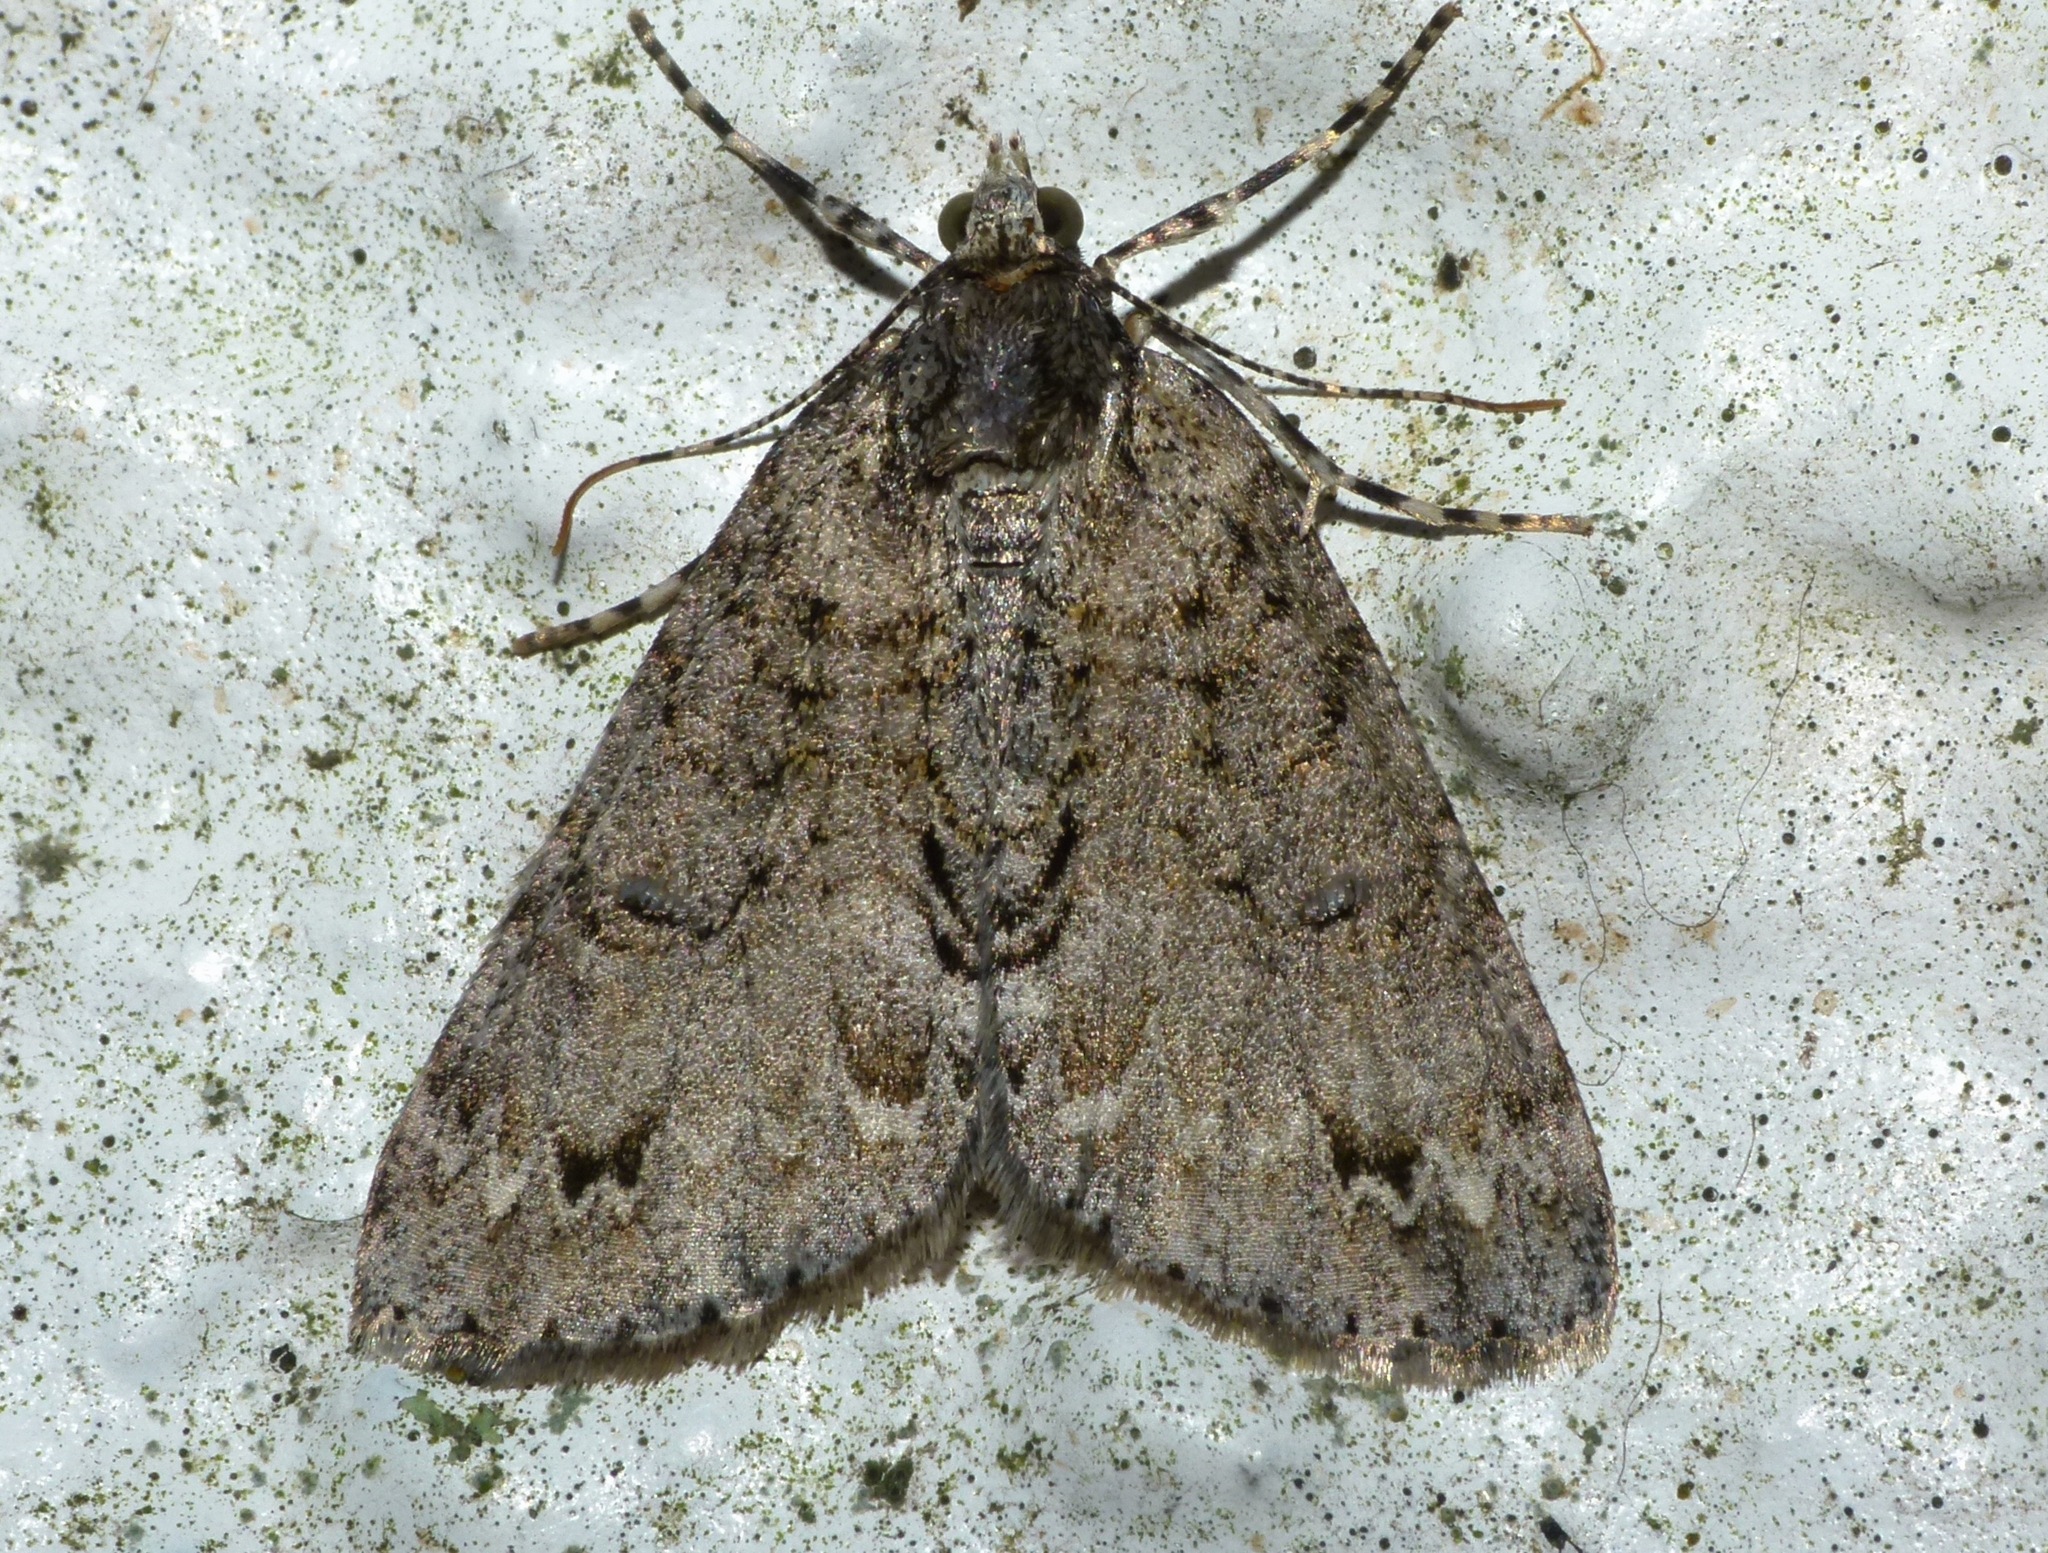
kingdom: Animalia
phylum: Arthropoda
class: Insecta
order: Lepidoptera
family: Geometridae
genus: Pseudocoremia
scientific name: Pseudocoremia suavis
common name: Common forest looper
